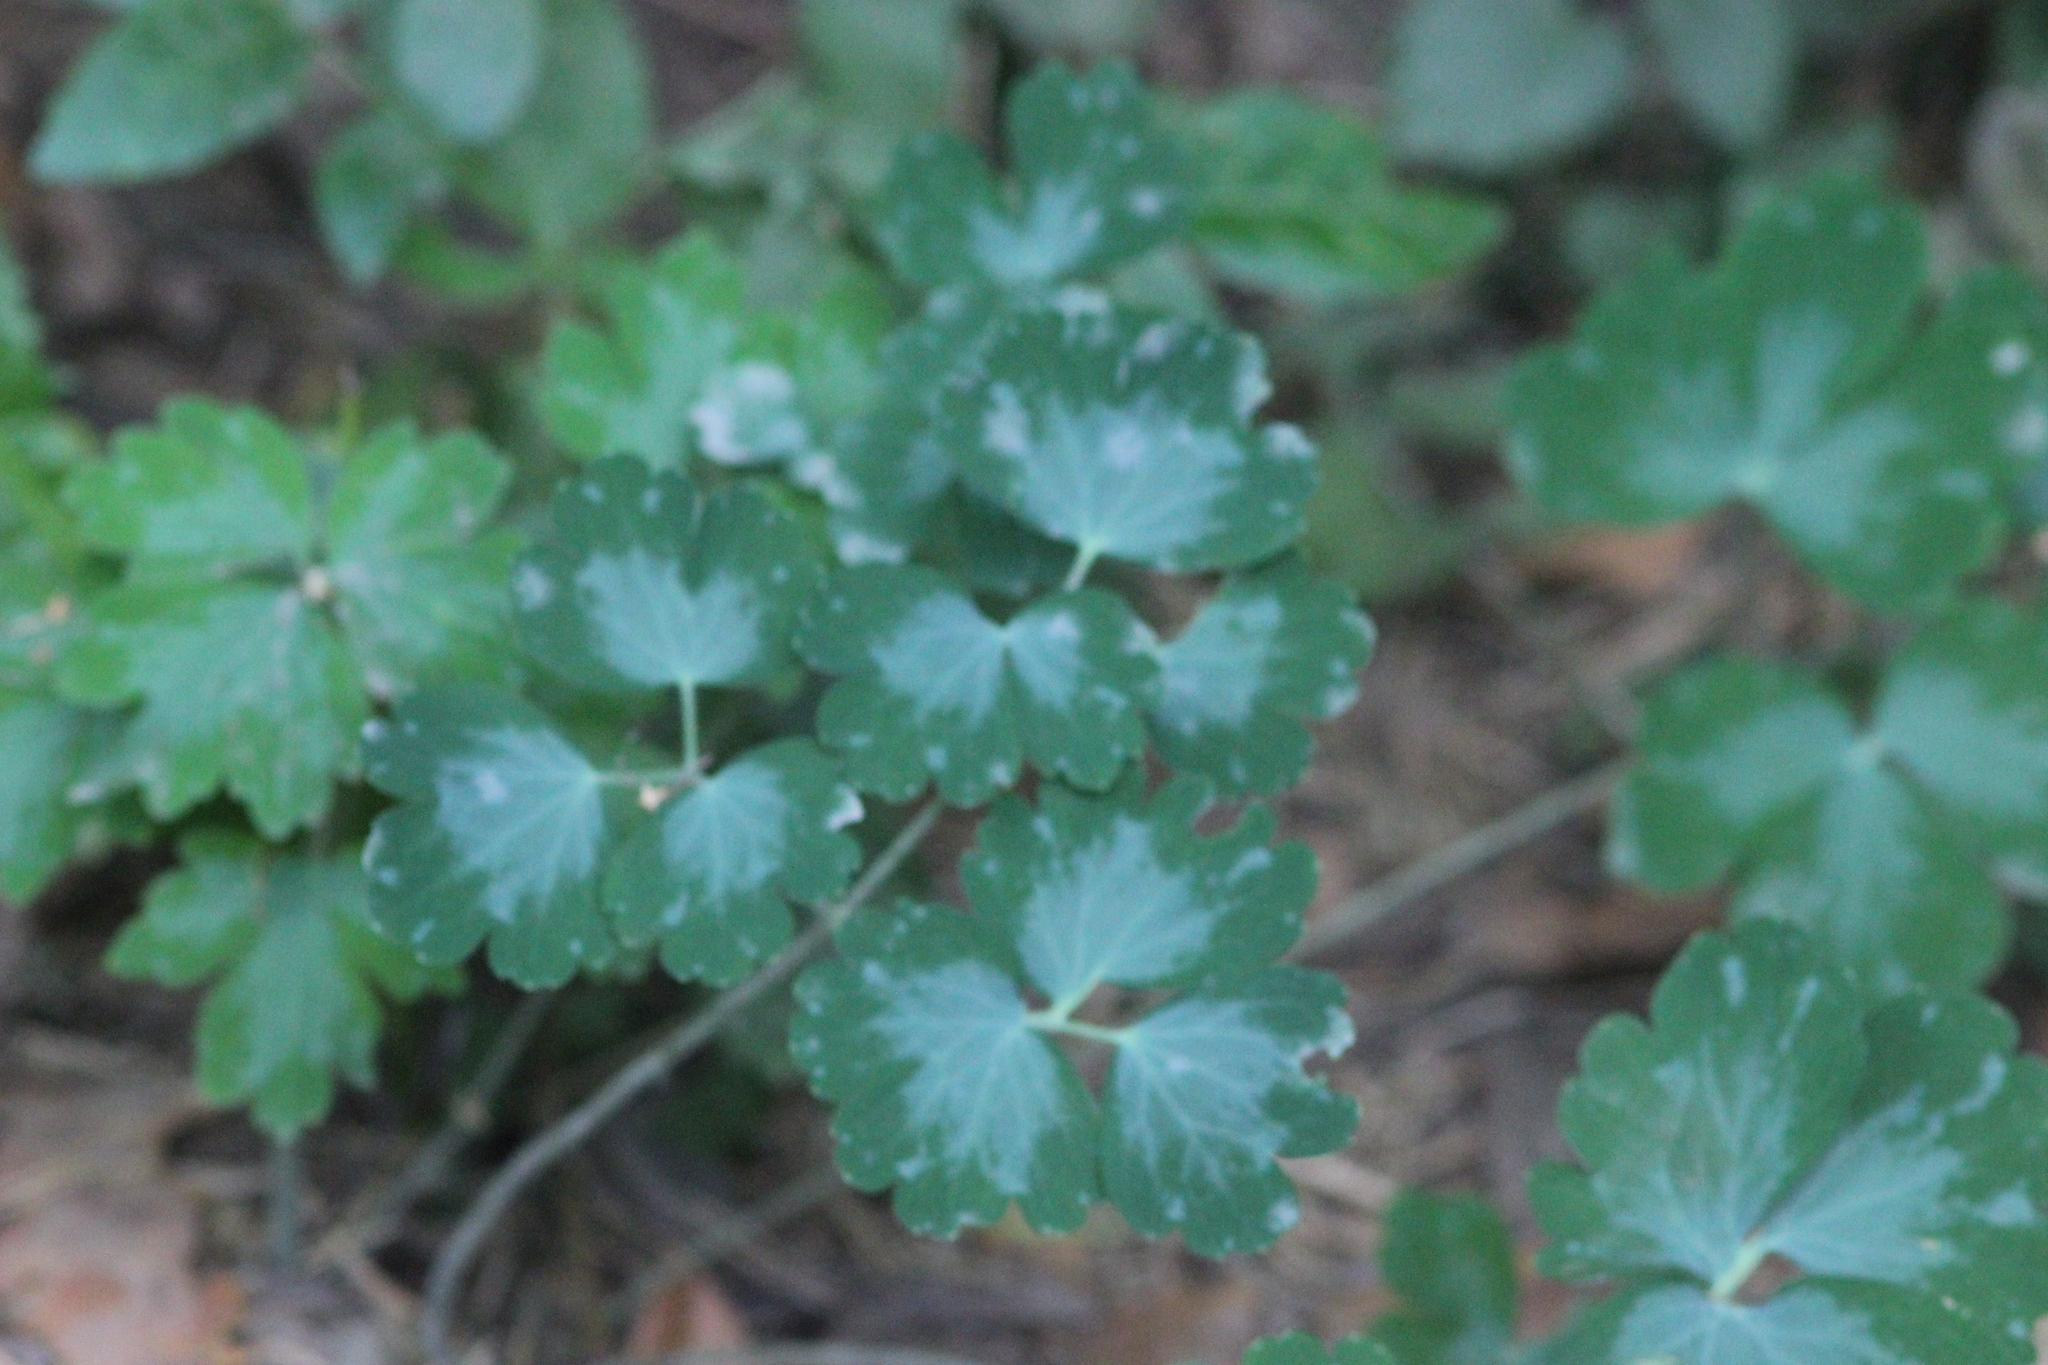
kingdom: Plantae
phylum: Tracheophyta
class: Magnoliopsida
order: Ranunculales
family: Ranunculaceae
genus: Aquilegia
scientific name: Aquilegia vulgaris
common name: Columbine
